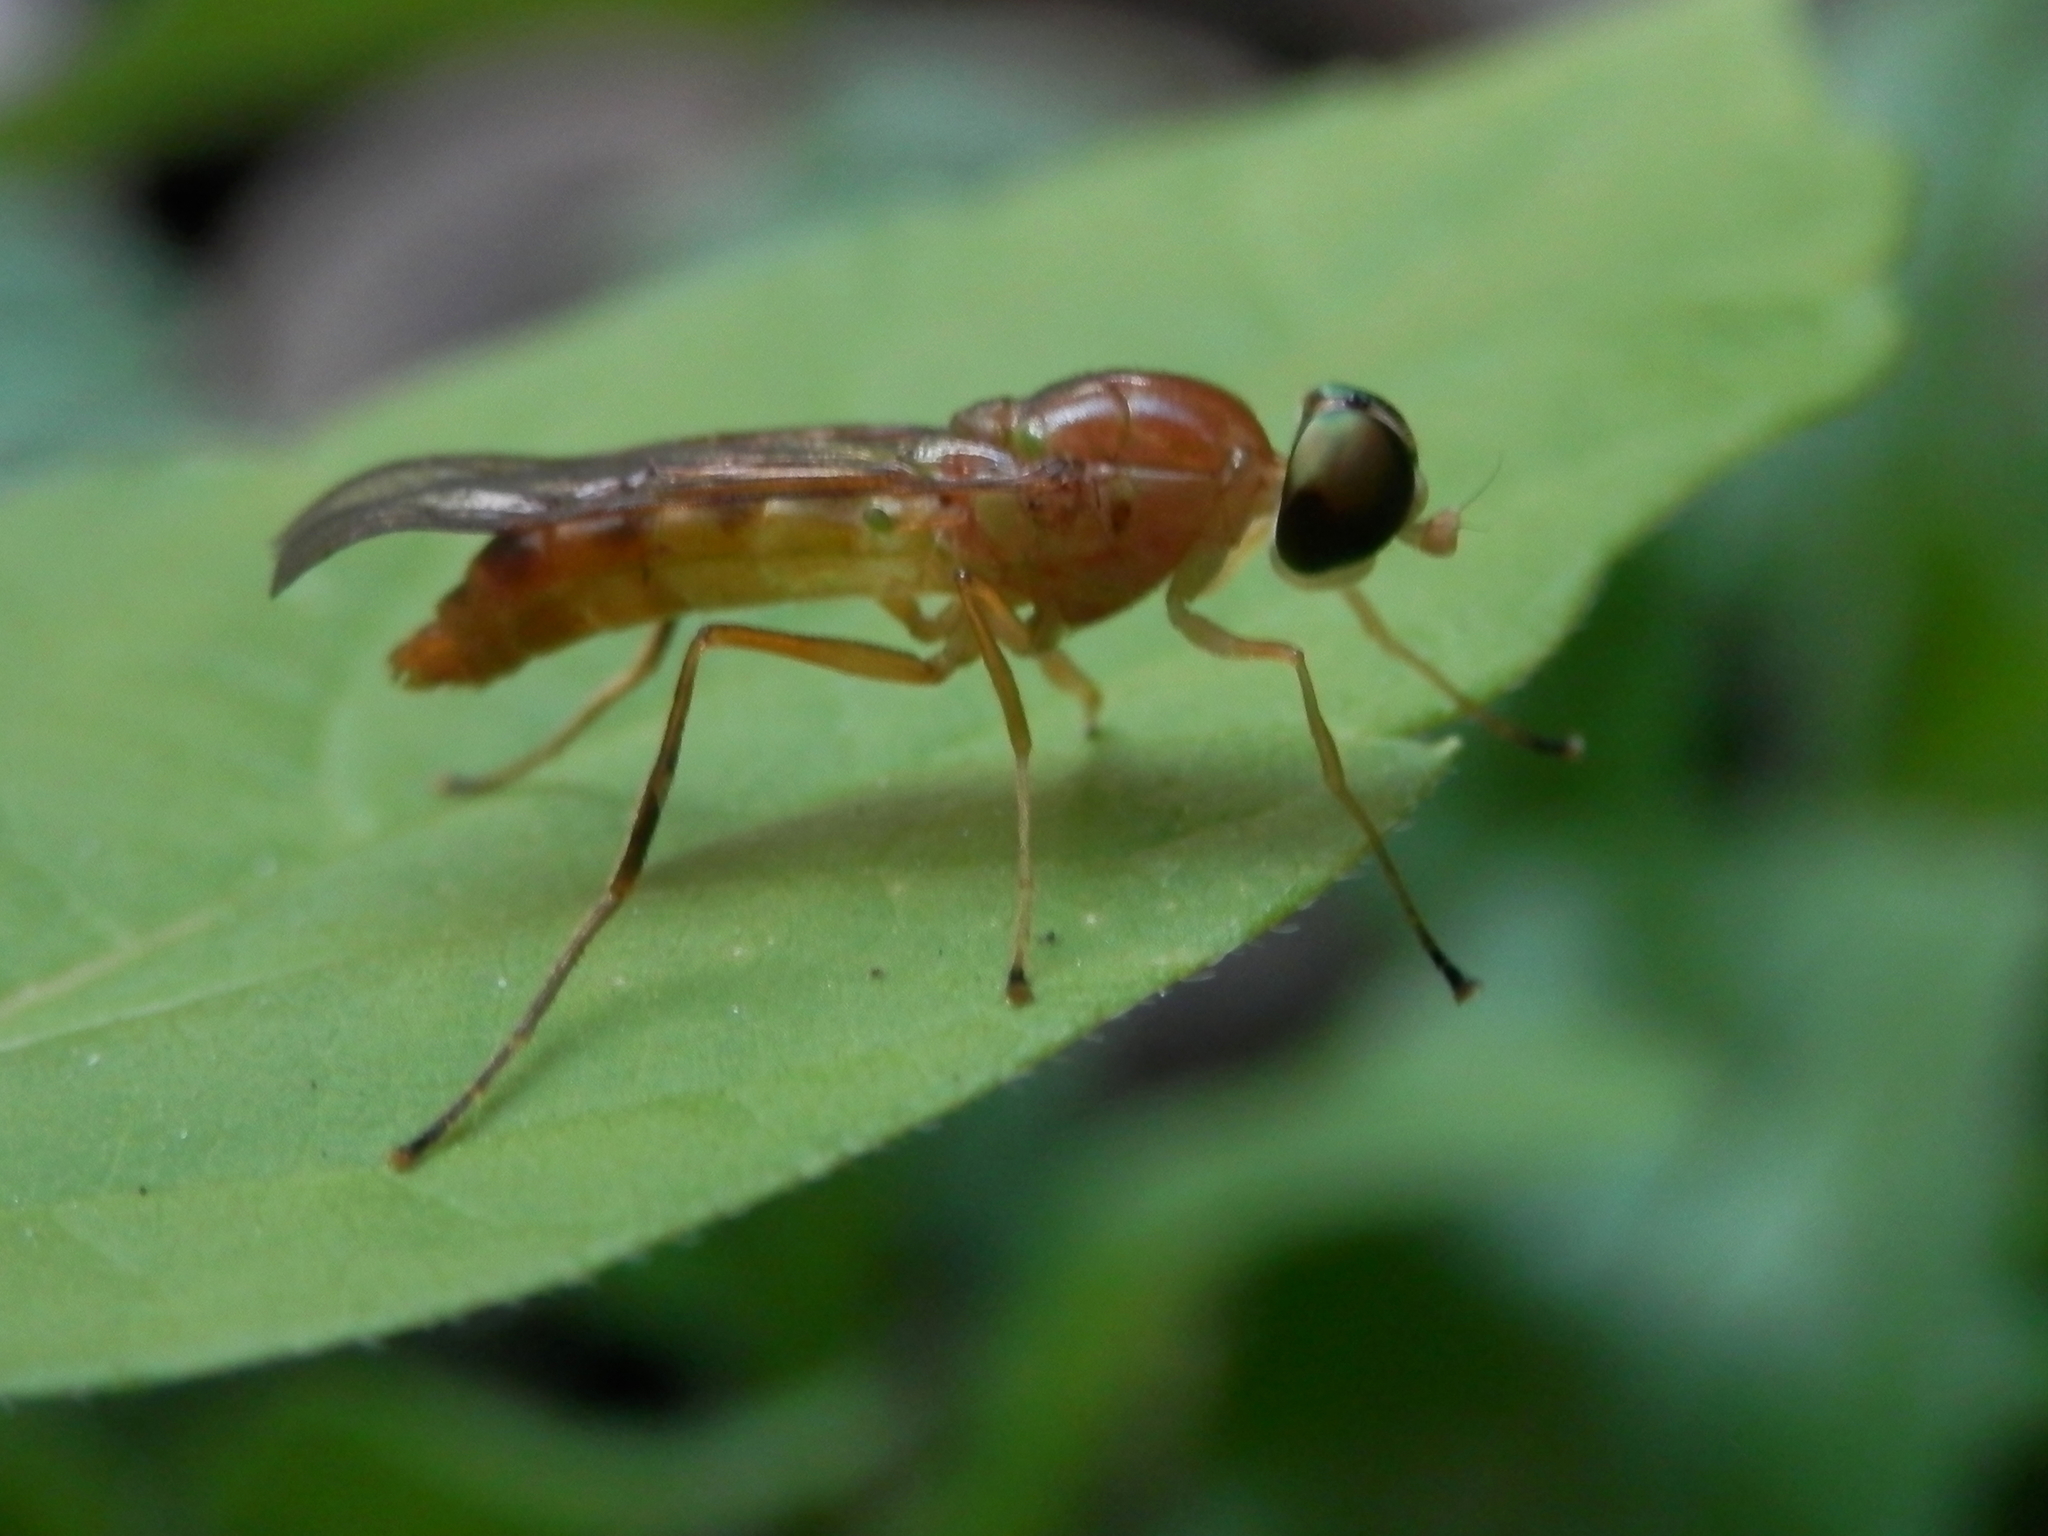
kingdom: Animalia
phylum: Arthropoda
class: Insecta
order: Diptera
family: Stratiomyidae
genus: Ptecticus
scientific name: Ptecticus trivittatus
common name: Compost fly
